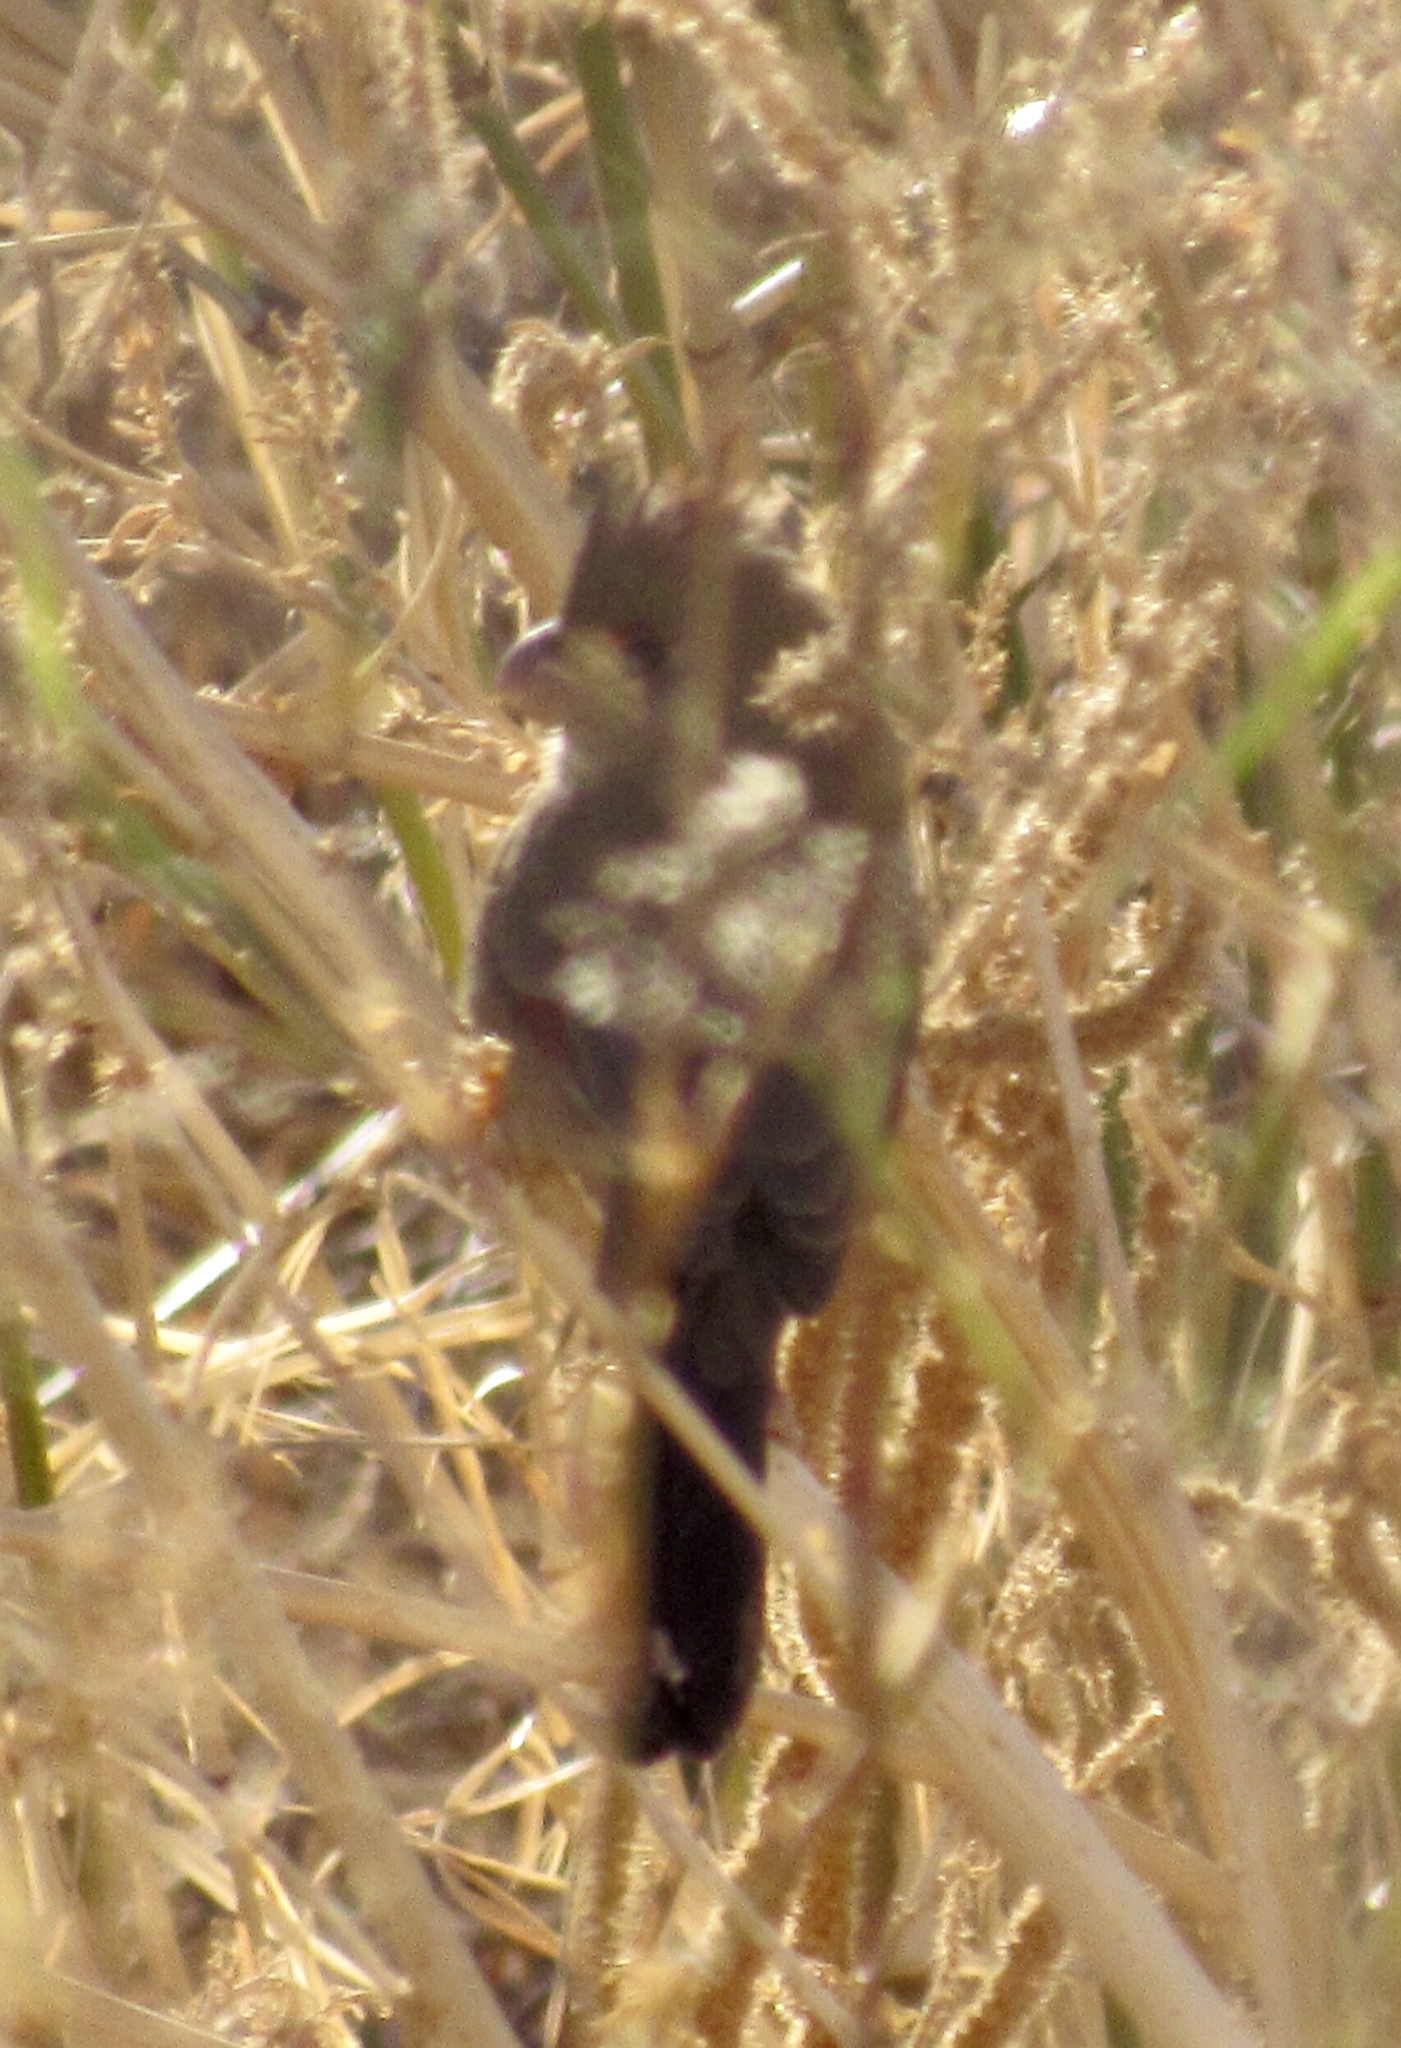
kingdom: Animalia
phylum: Chordata
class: Aves
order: Passeriformes
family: Cardinalidae
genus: Cardinalis
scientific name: Cardinalis sinuatus
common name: Pyrrhuloxia
